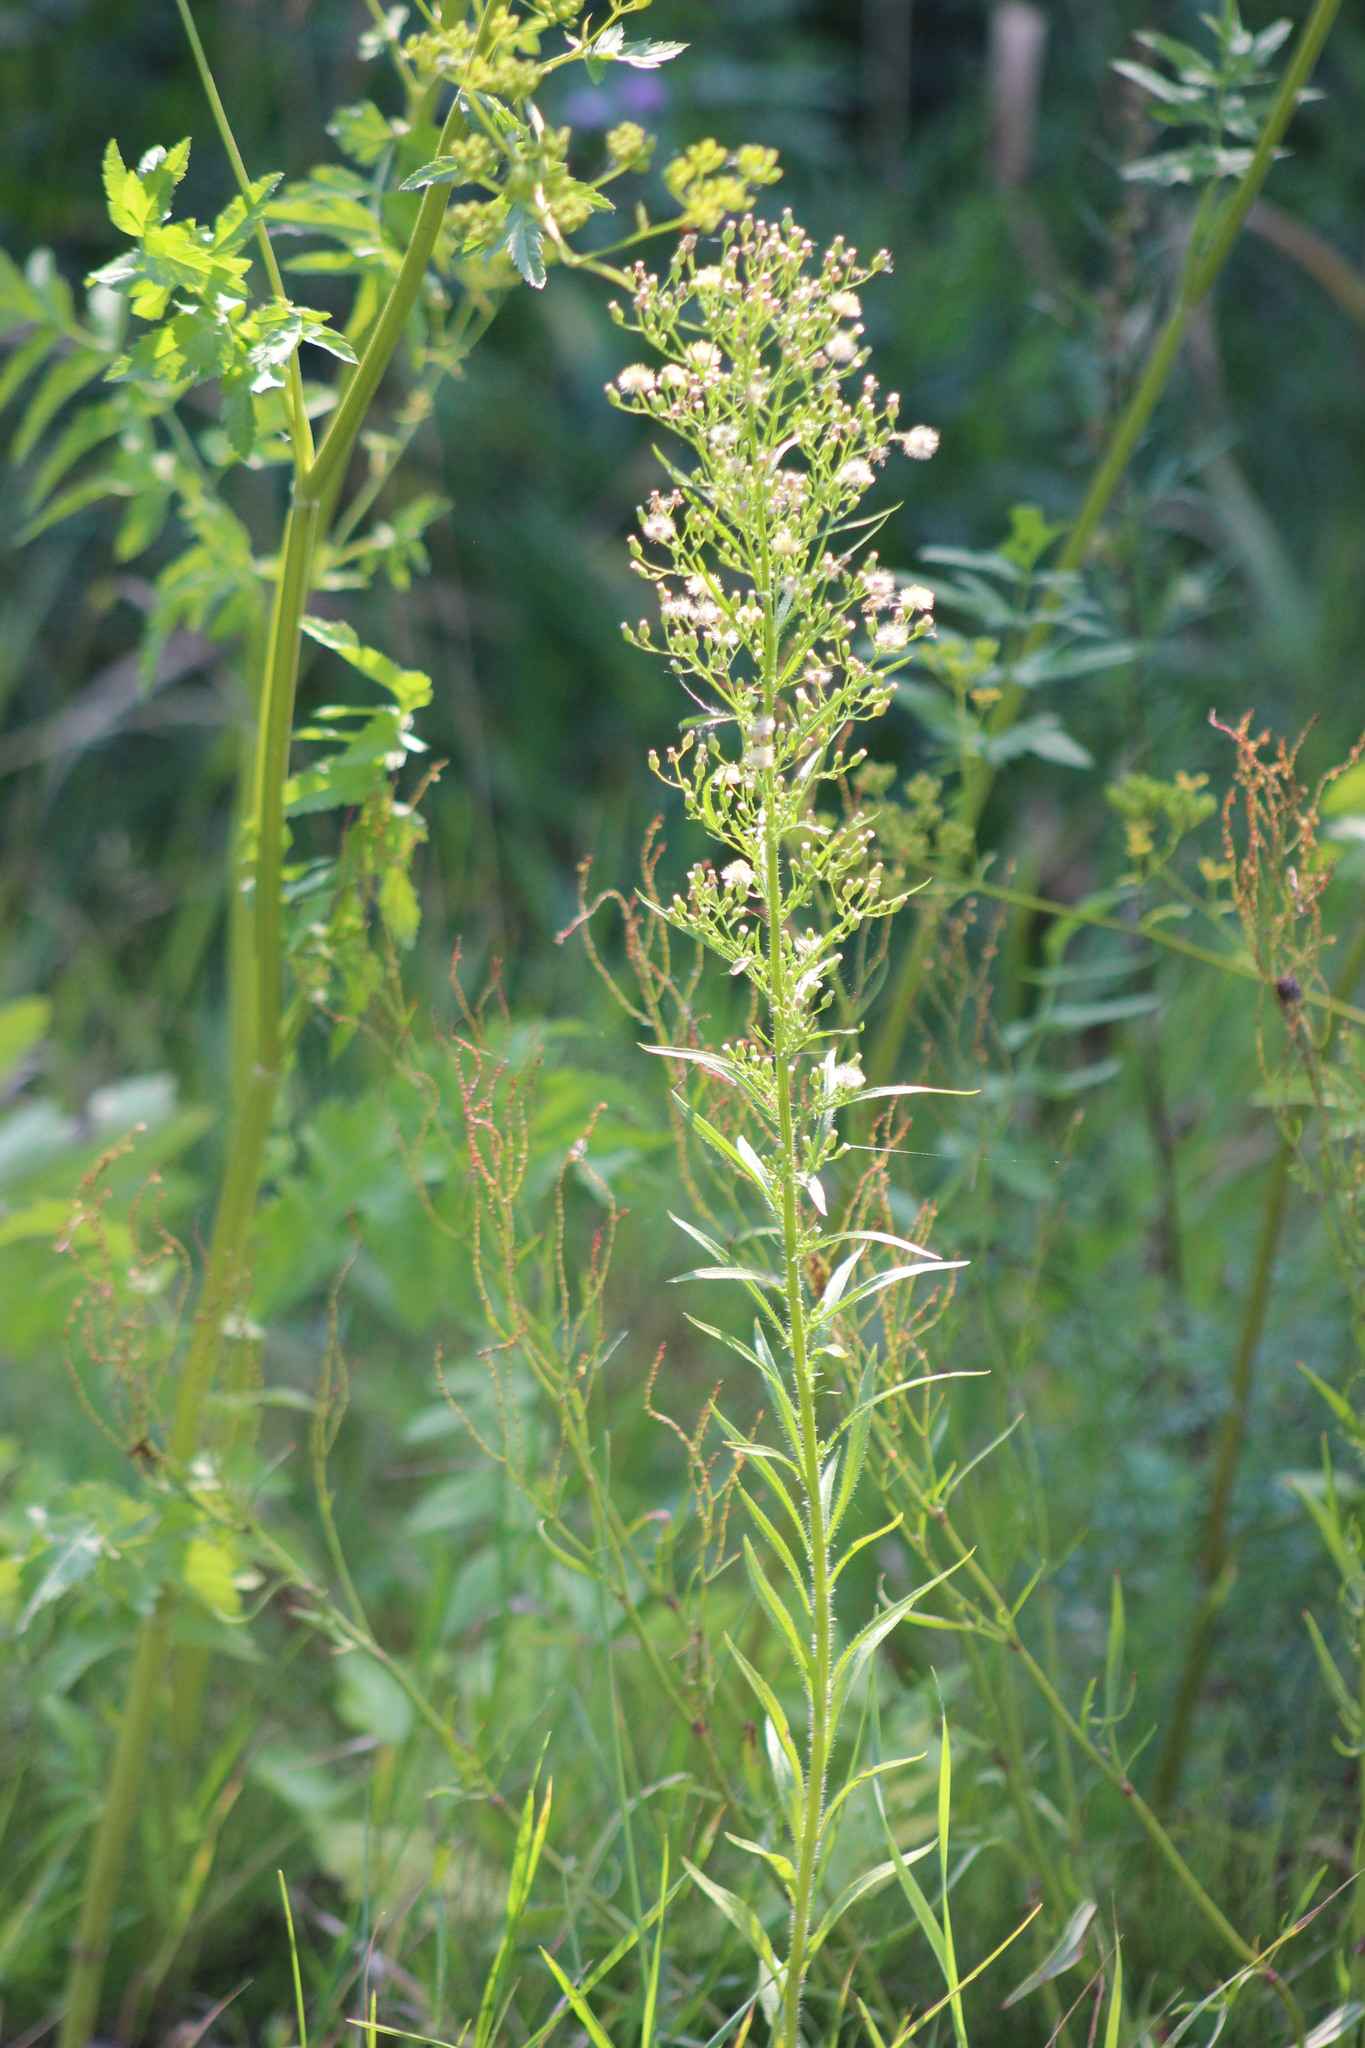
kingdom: Plantae
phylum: Tracheophyta
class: Magnoliopsida
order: Asterales
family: Asteraceae
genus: Erigeron
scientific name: Erigeron canadensis
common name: Canadian fleabane
